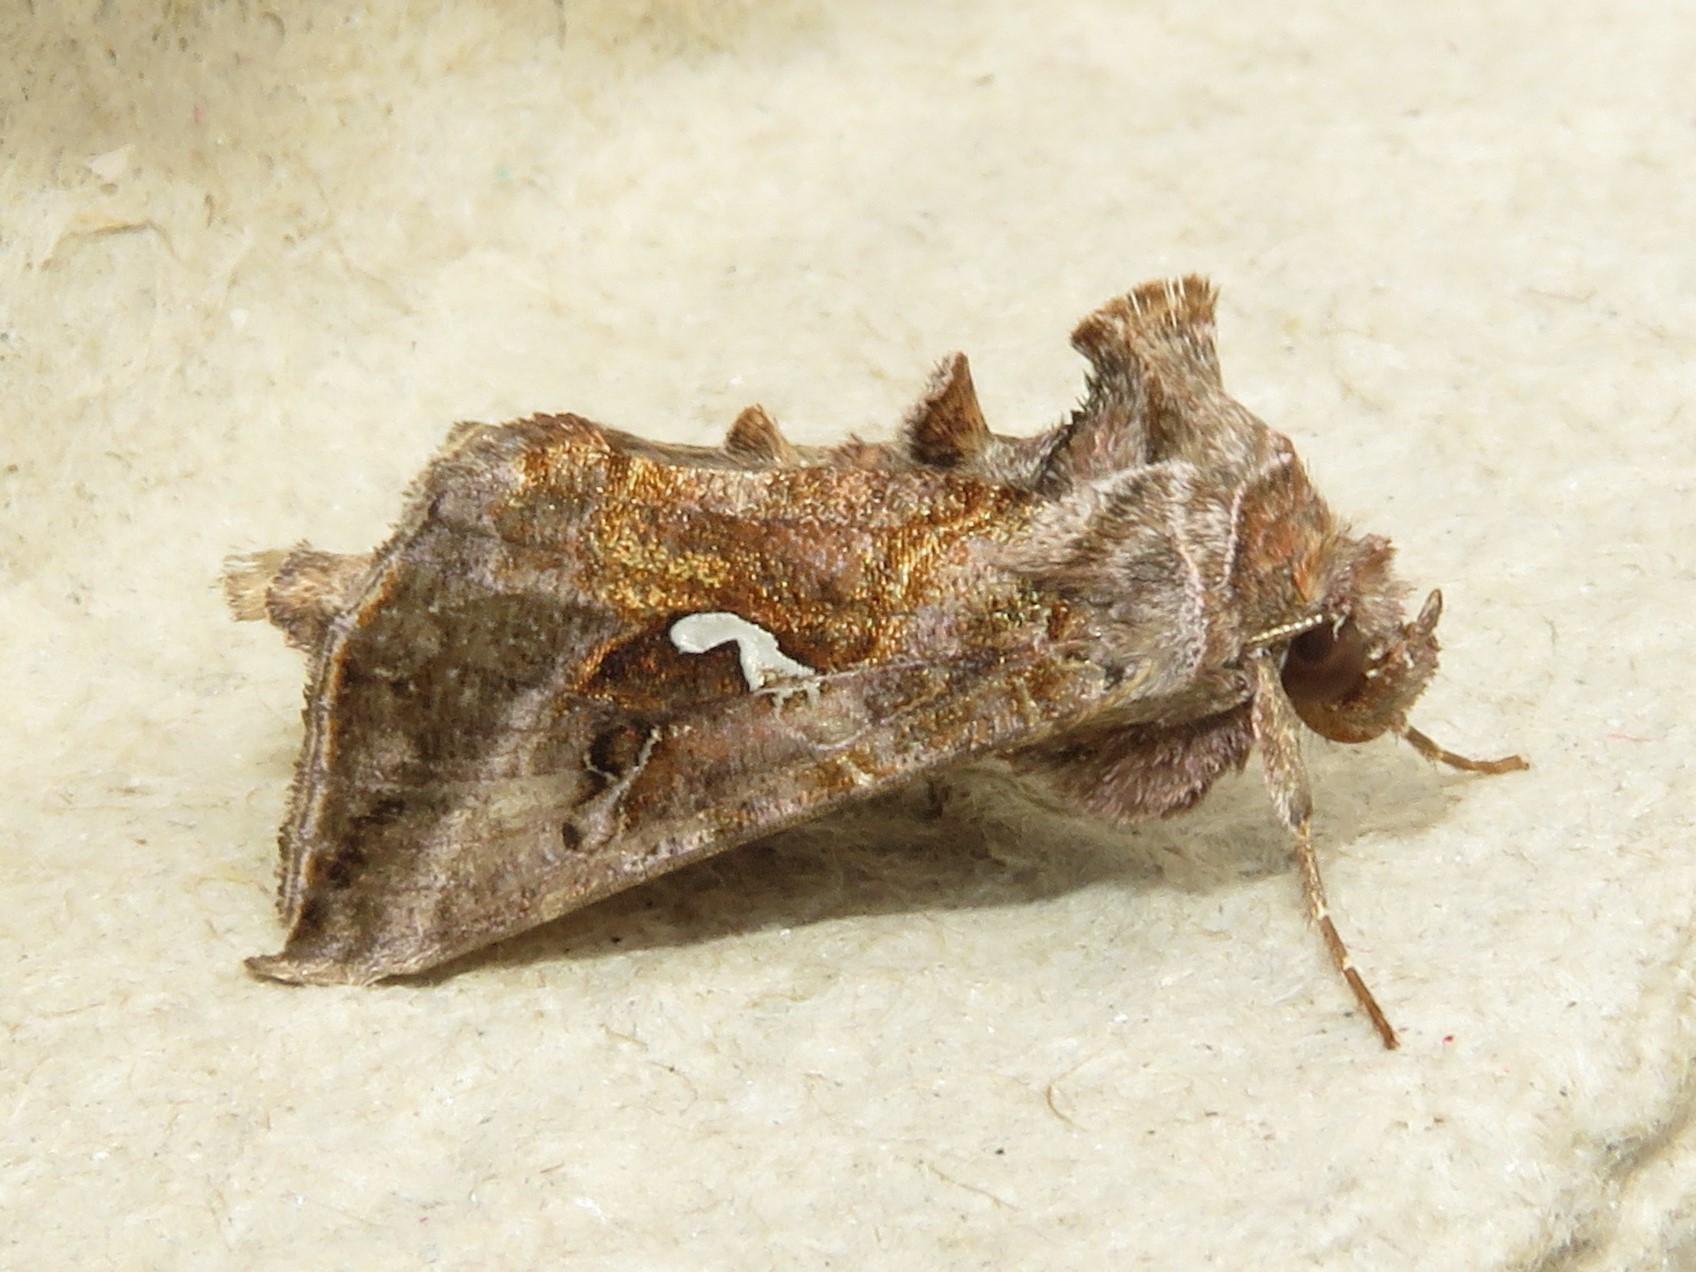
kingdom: Animalia
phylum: Arthropoda
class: Insecta
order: Lepidoptera
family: Noctuidae
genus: Autographa
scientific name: Autographa precationis
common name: Common looper moth
